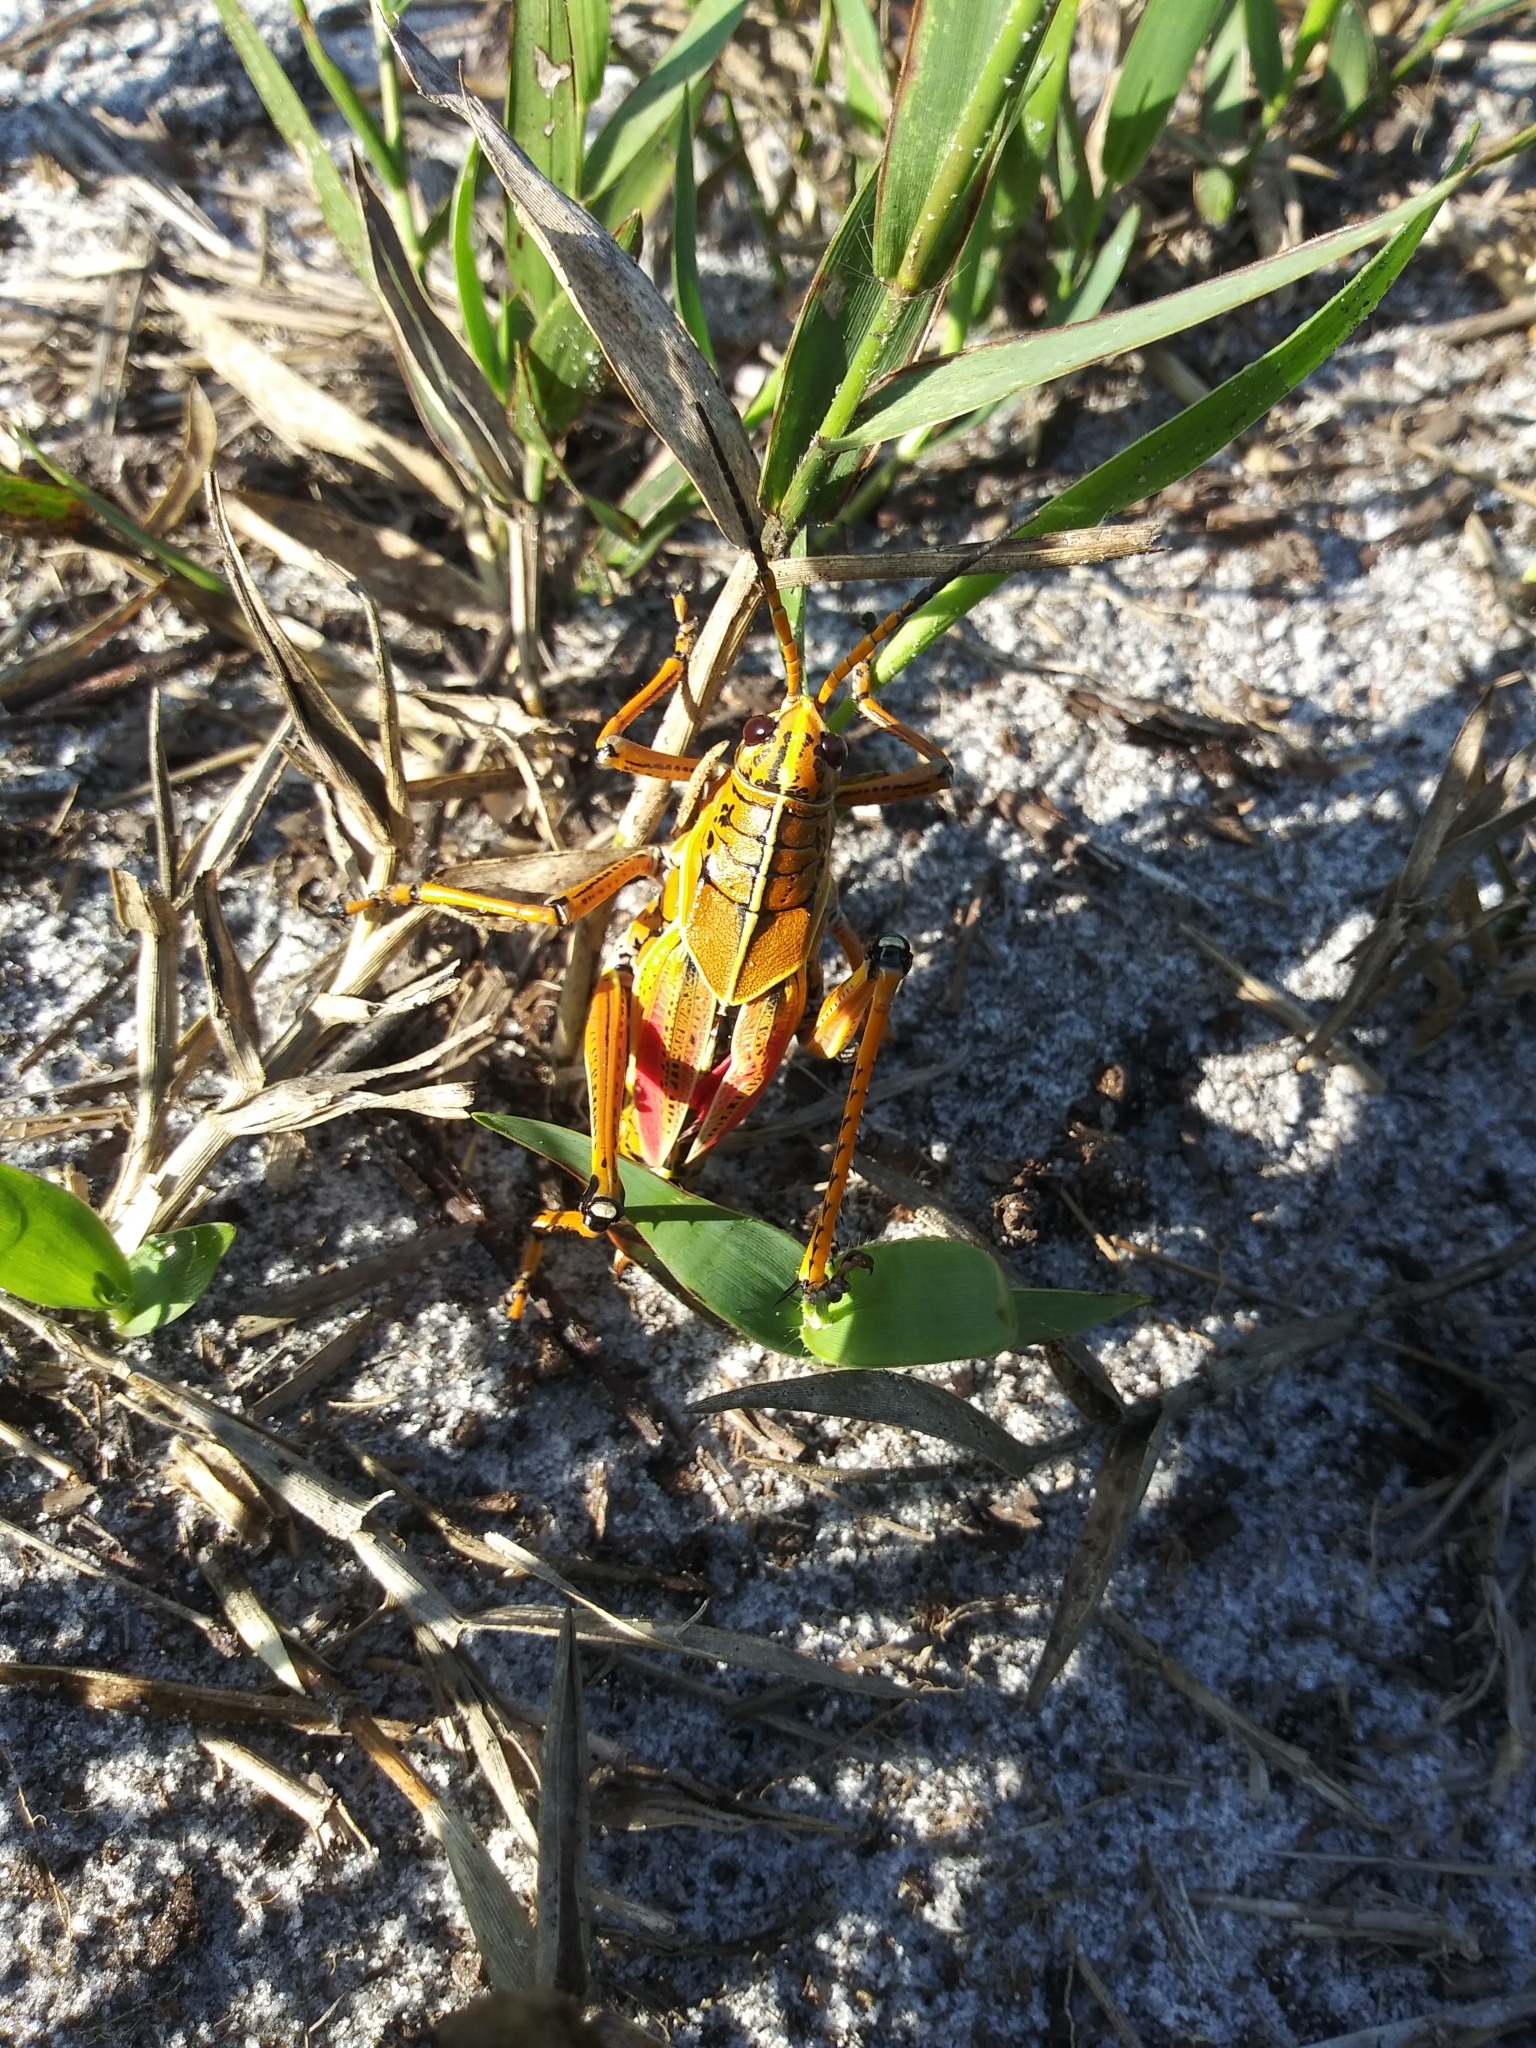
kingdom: Animalia
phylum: Arthropoda
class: Insecta
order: Orthoptera
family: Romaleidae
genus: Romalea
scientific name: Romalea microptera
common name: Eastern lubber grasshopper
